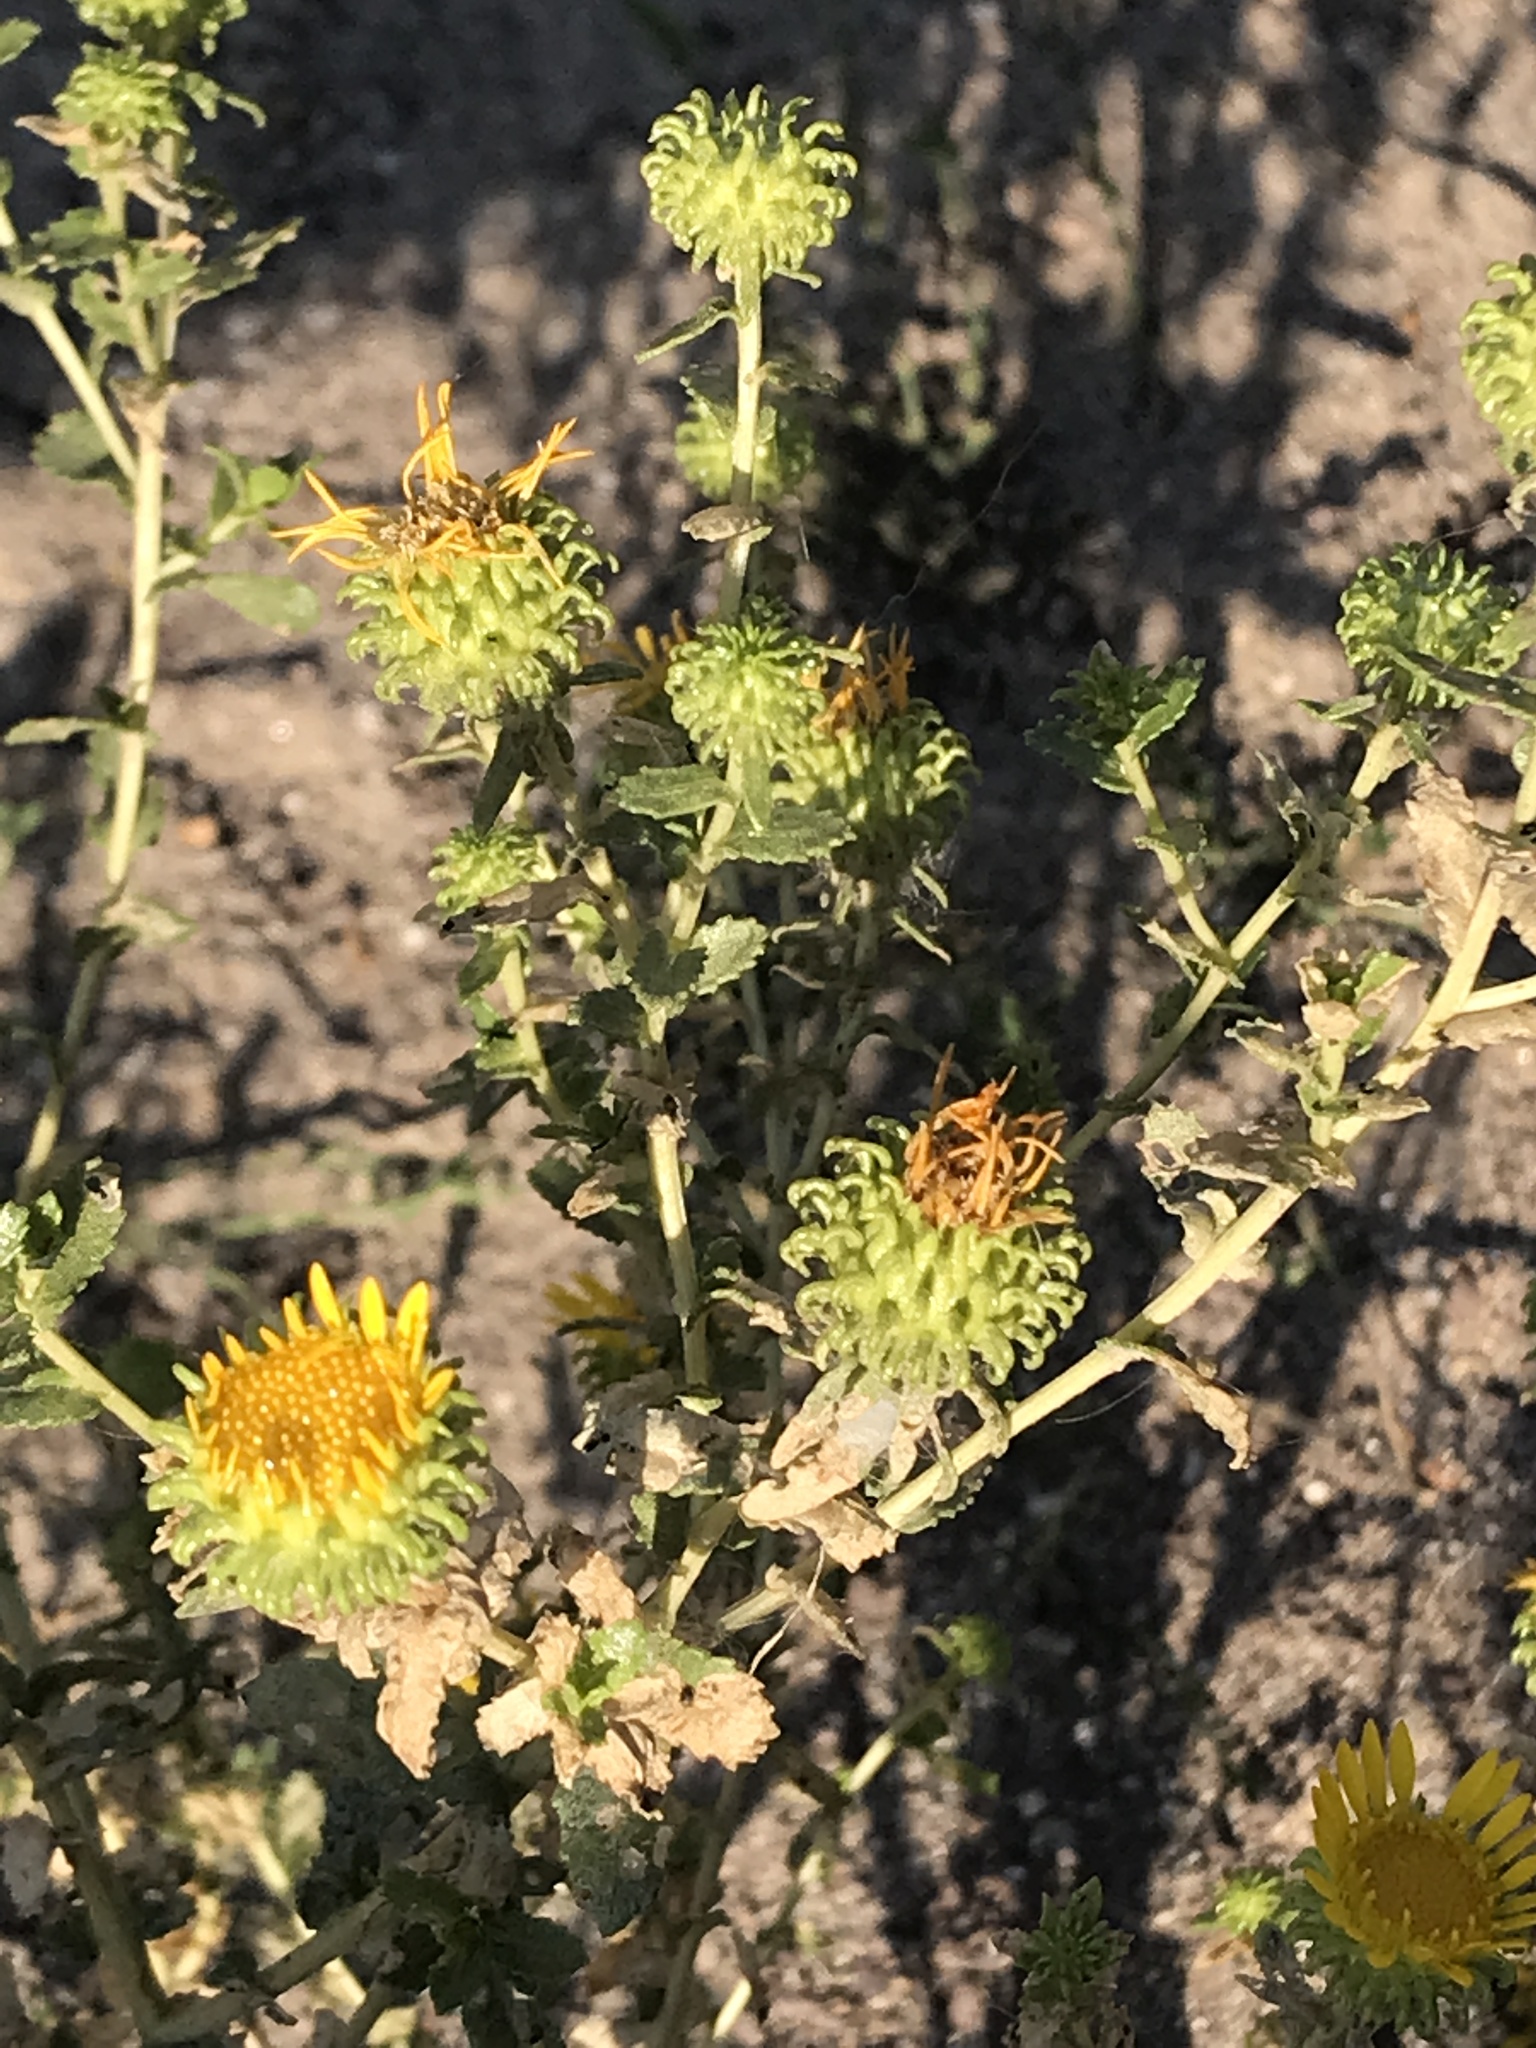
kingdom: Plantae
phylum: Tracheophyta
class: Magnoliopsida
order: Asterales
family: Asteraceae
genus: Grindelia
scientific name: Grindelia squarrosa
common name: Curly-cup gumweed
